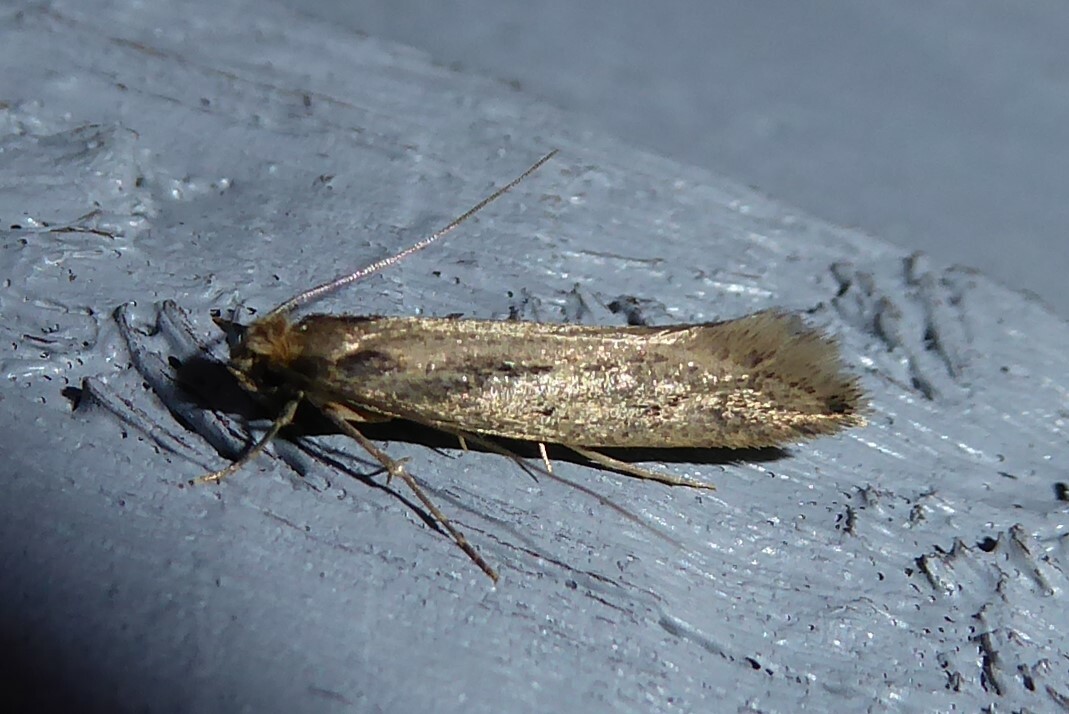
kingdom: Animalia
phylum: Arthropoda
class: Insecta
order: Lepidoptera
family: Tineidae
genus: Tinea
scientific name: Tinea pallescentella
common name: Large pale clothes moth
